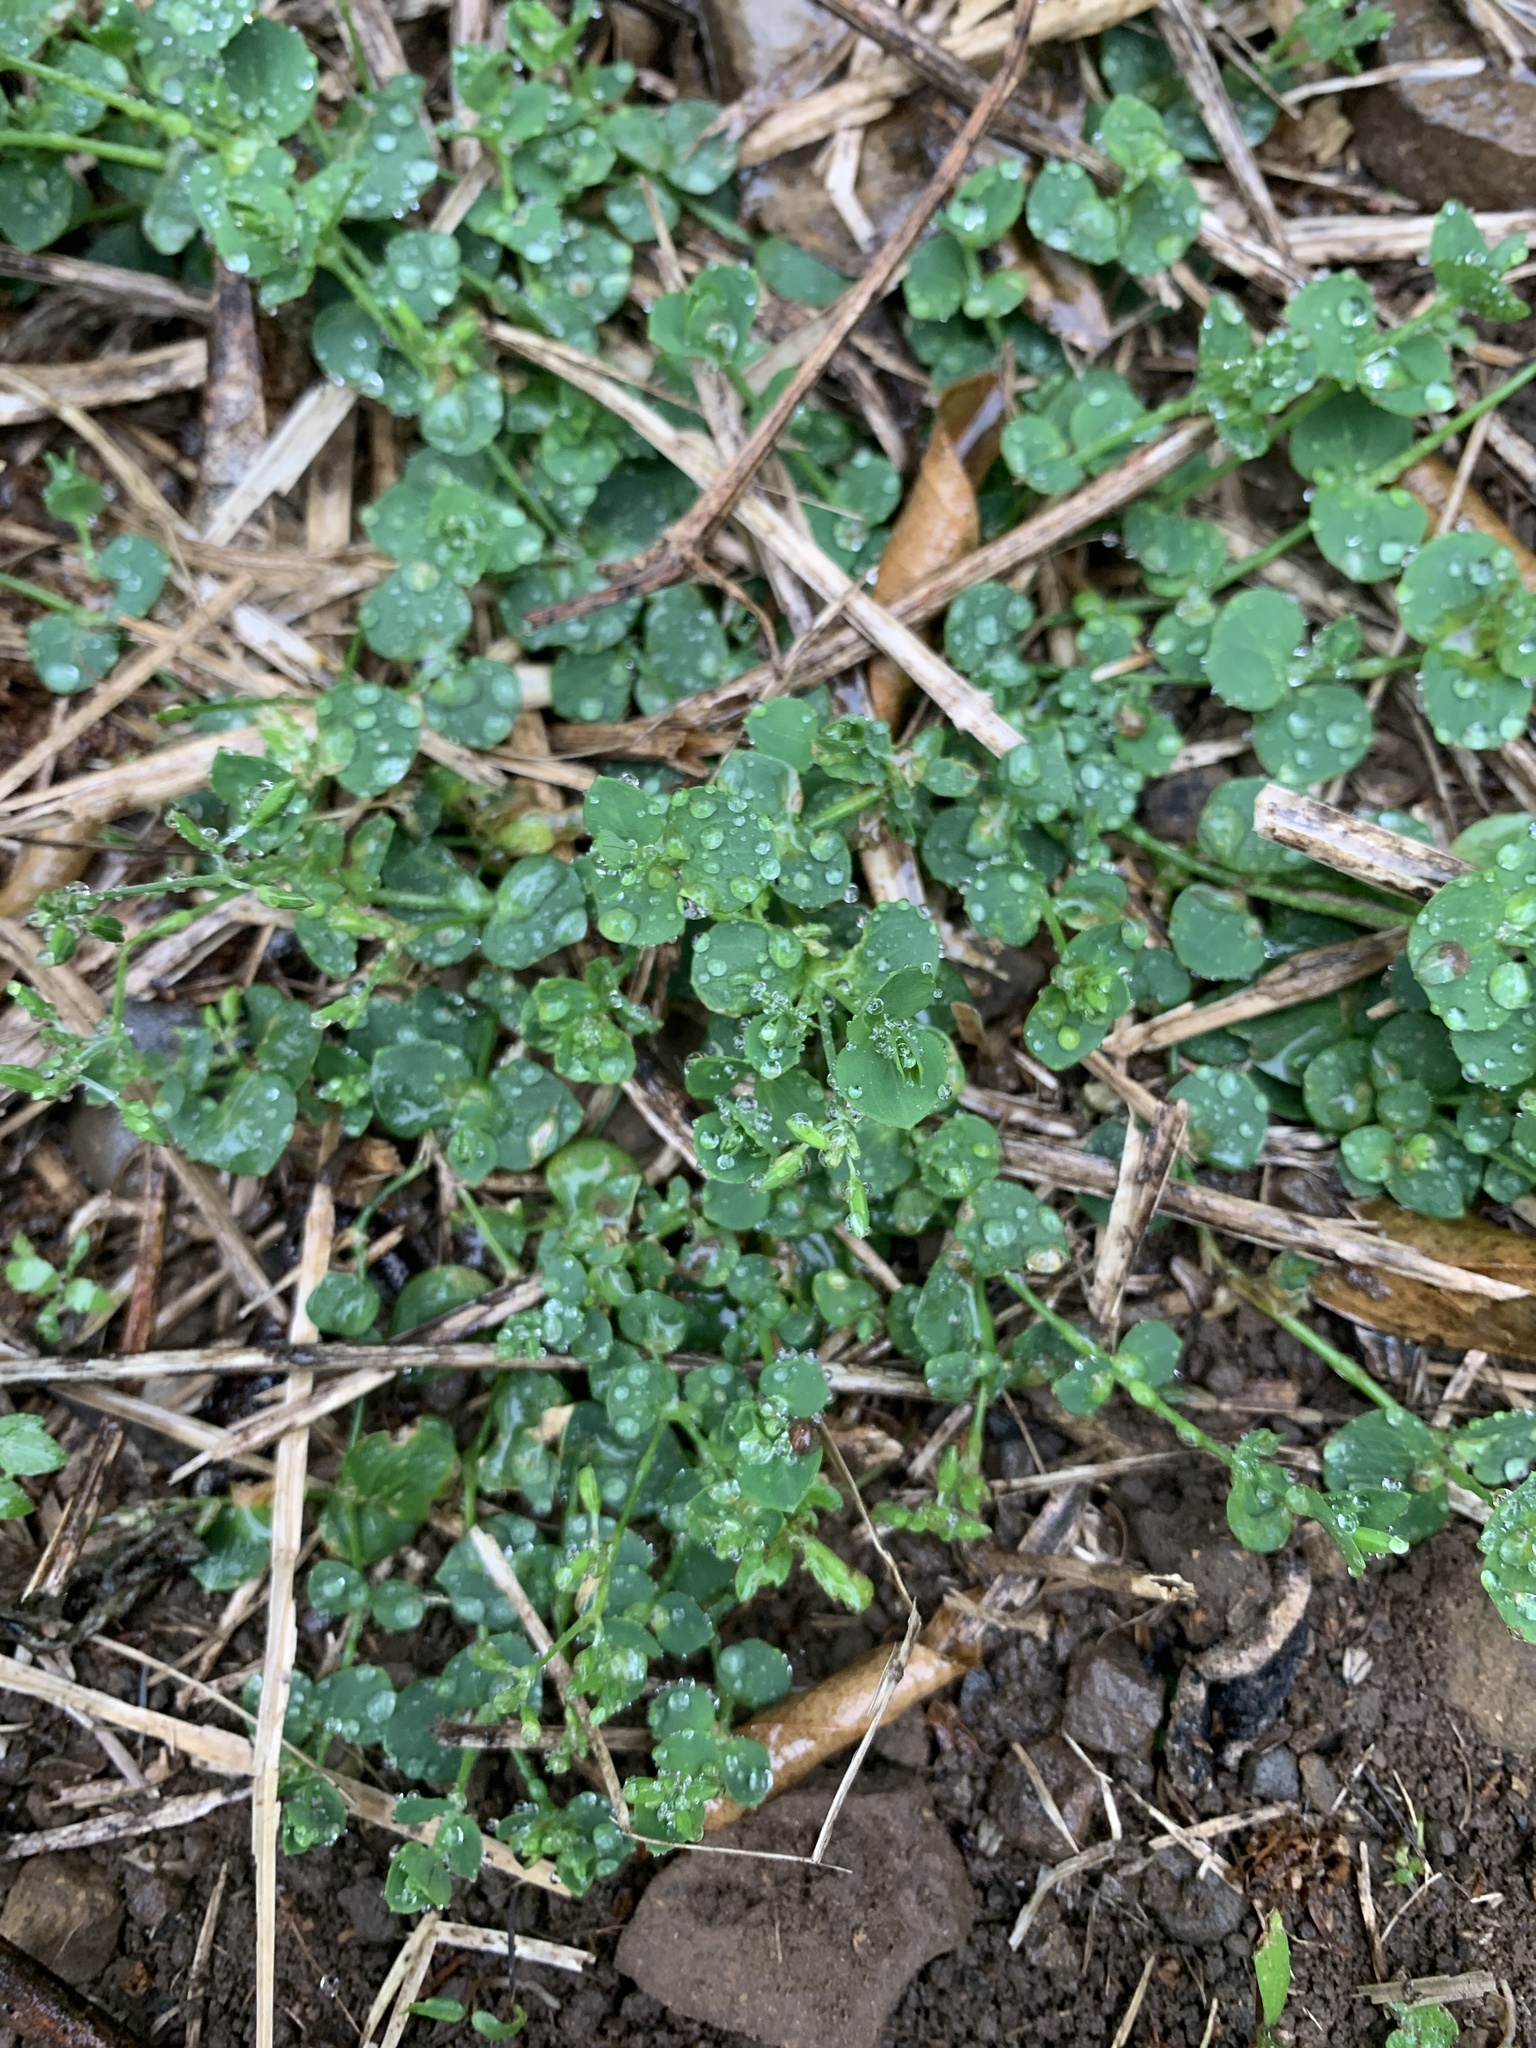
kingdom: Plantae
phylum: Tracheophyta
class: Magnoliopsida
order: Caryophyllales
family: Caryophyllaceae
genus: Drymaria
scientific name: Drymaria cordata
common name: Whitesnow
